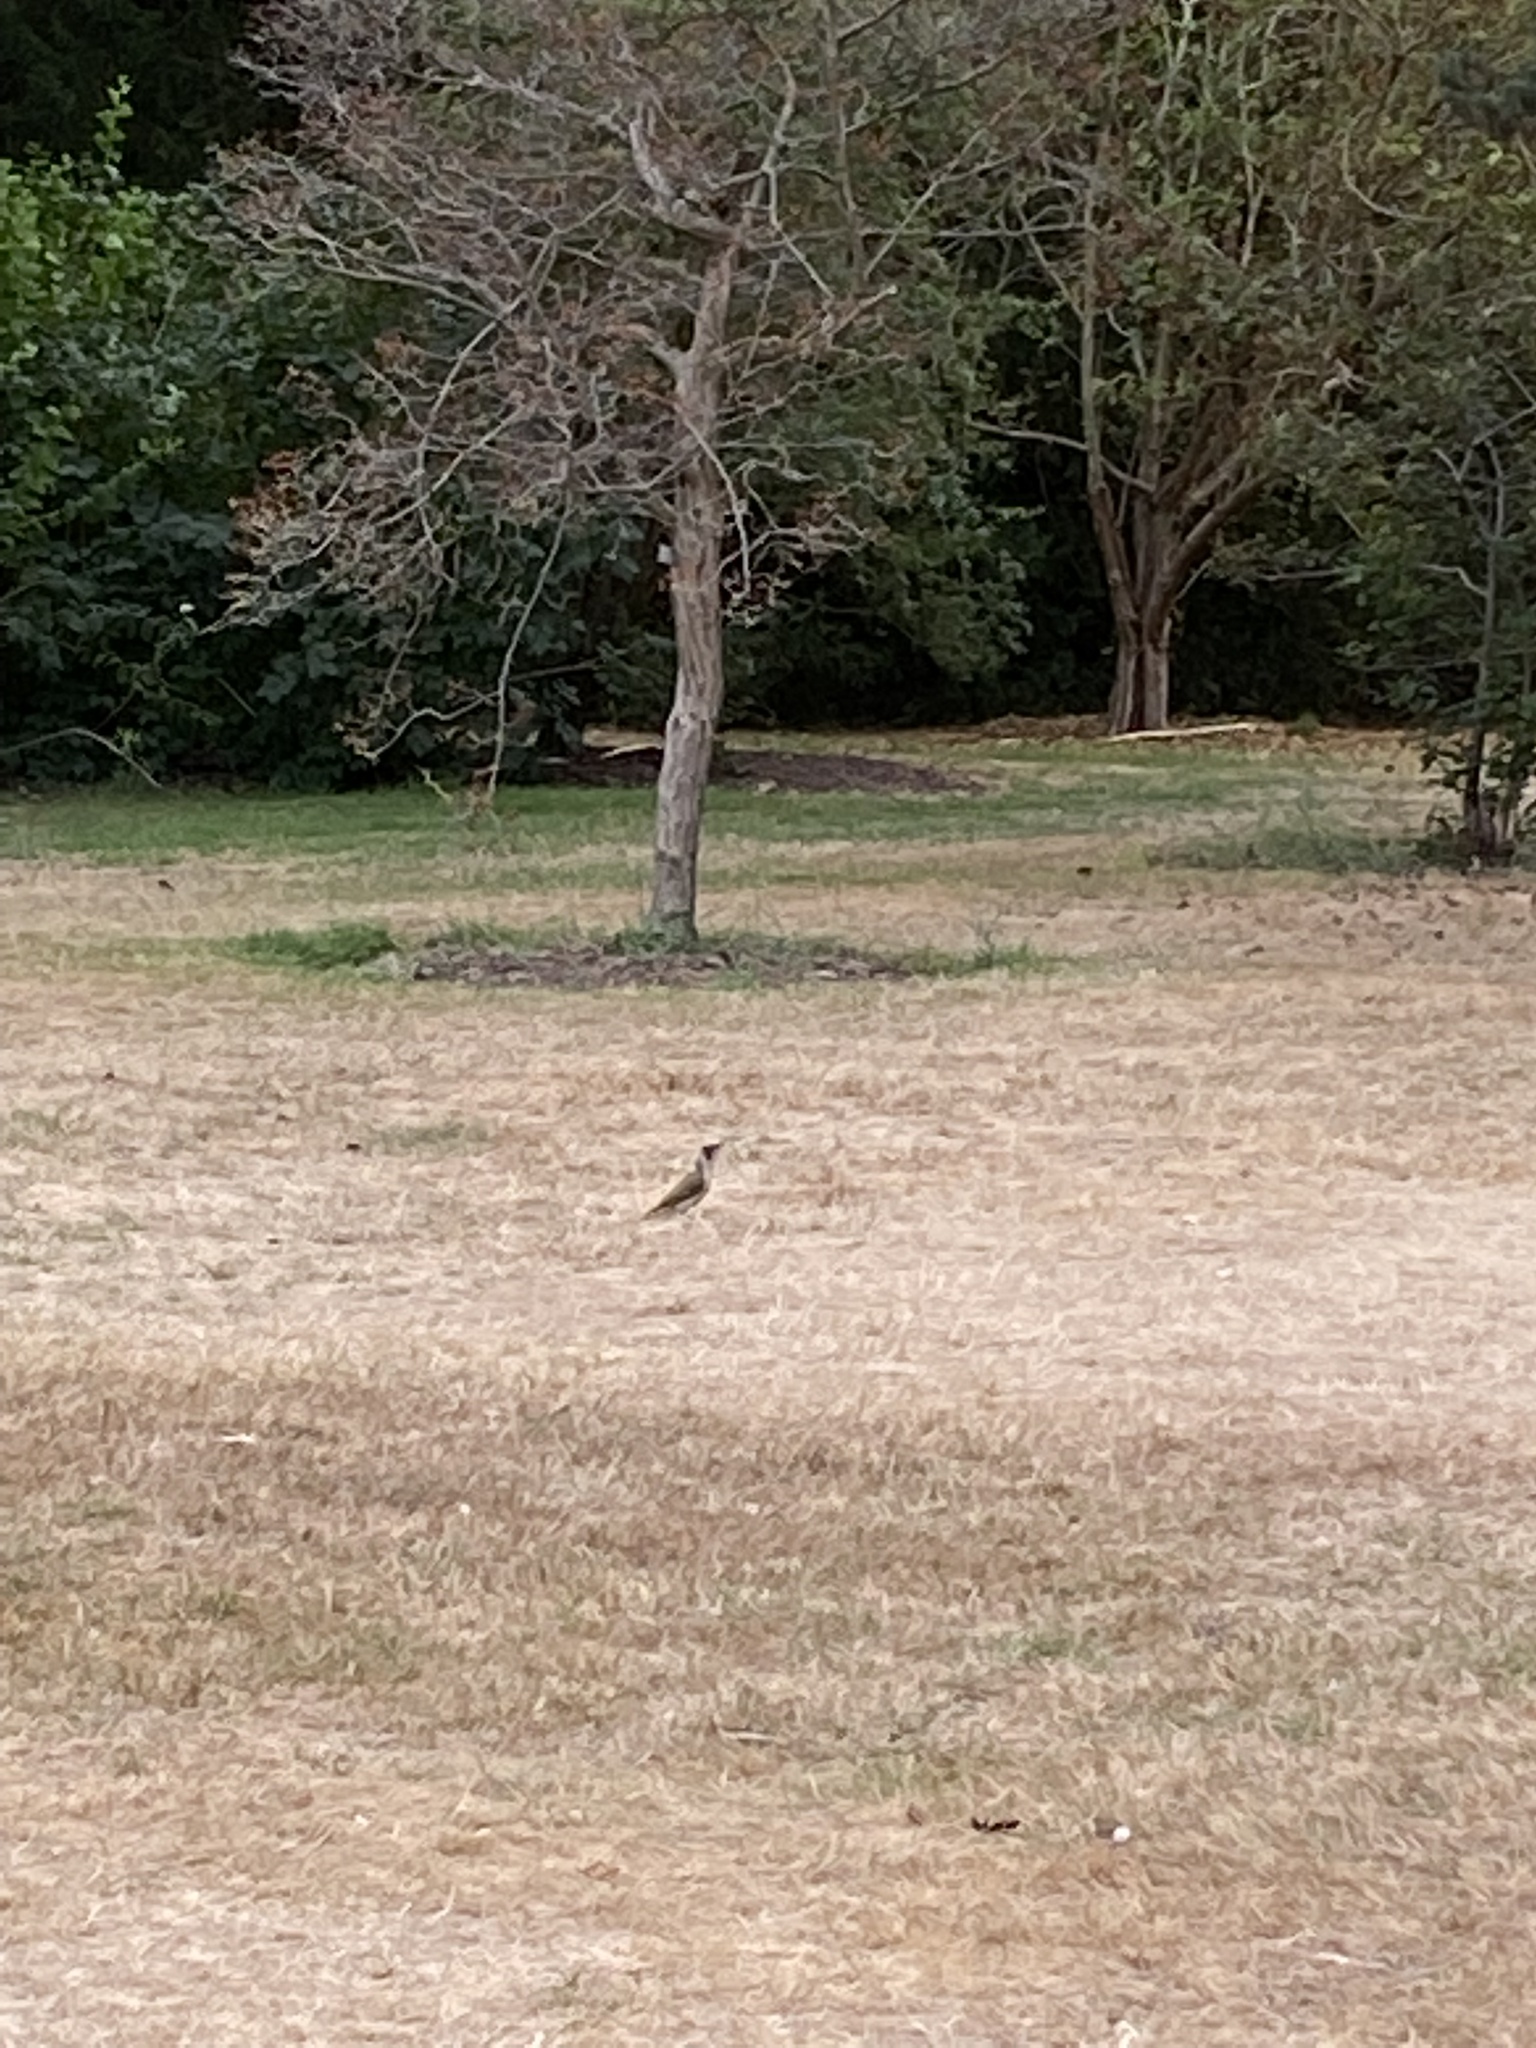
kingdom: Animalia
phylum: Chordata
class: Aves
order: Piciformes
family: Picidae
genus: Picus
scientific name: Picus viridis
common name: European green woodpecker
